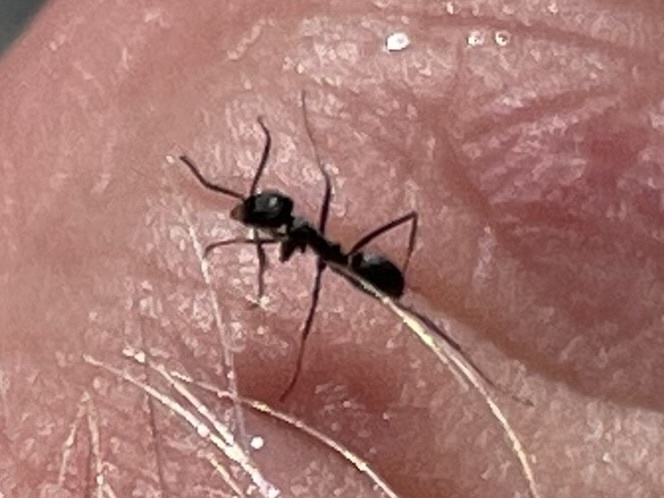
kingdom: Animalia
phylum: Arthropoda
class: Insecta
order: Hymenoptera
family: Formicidae
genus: Dorymyrmex
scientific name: Dorymyrmex
